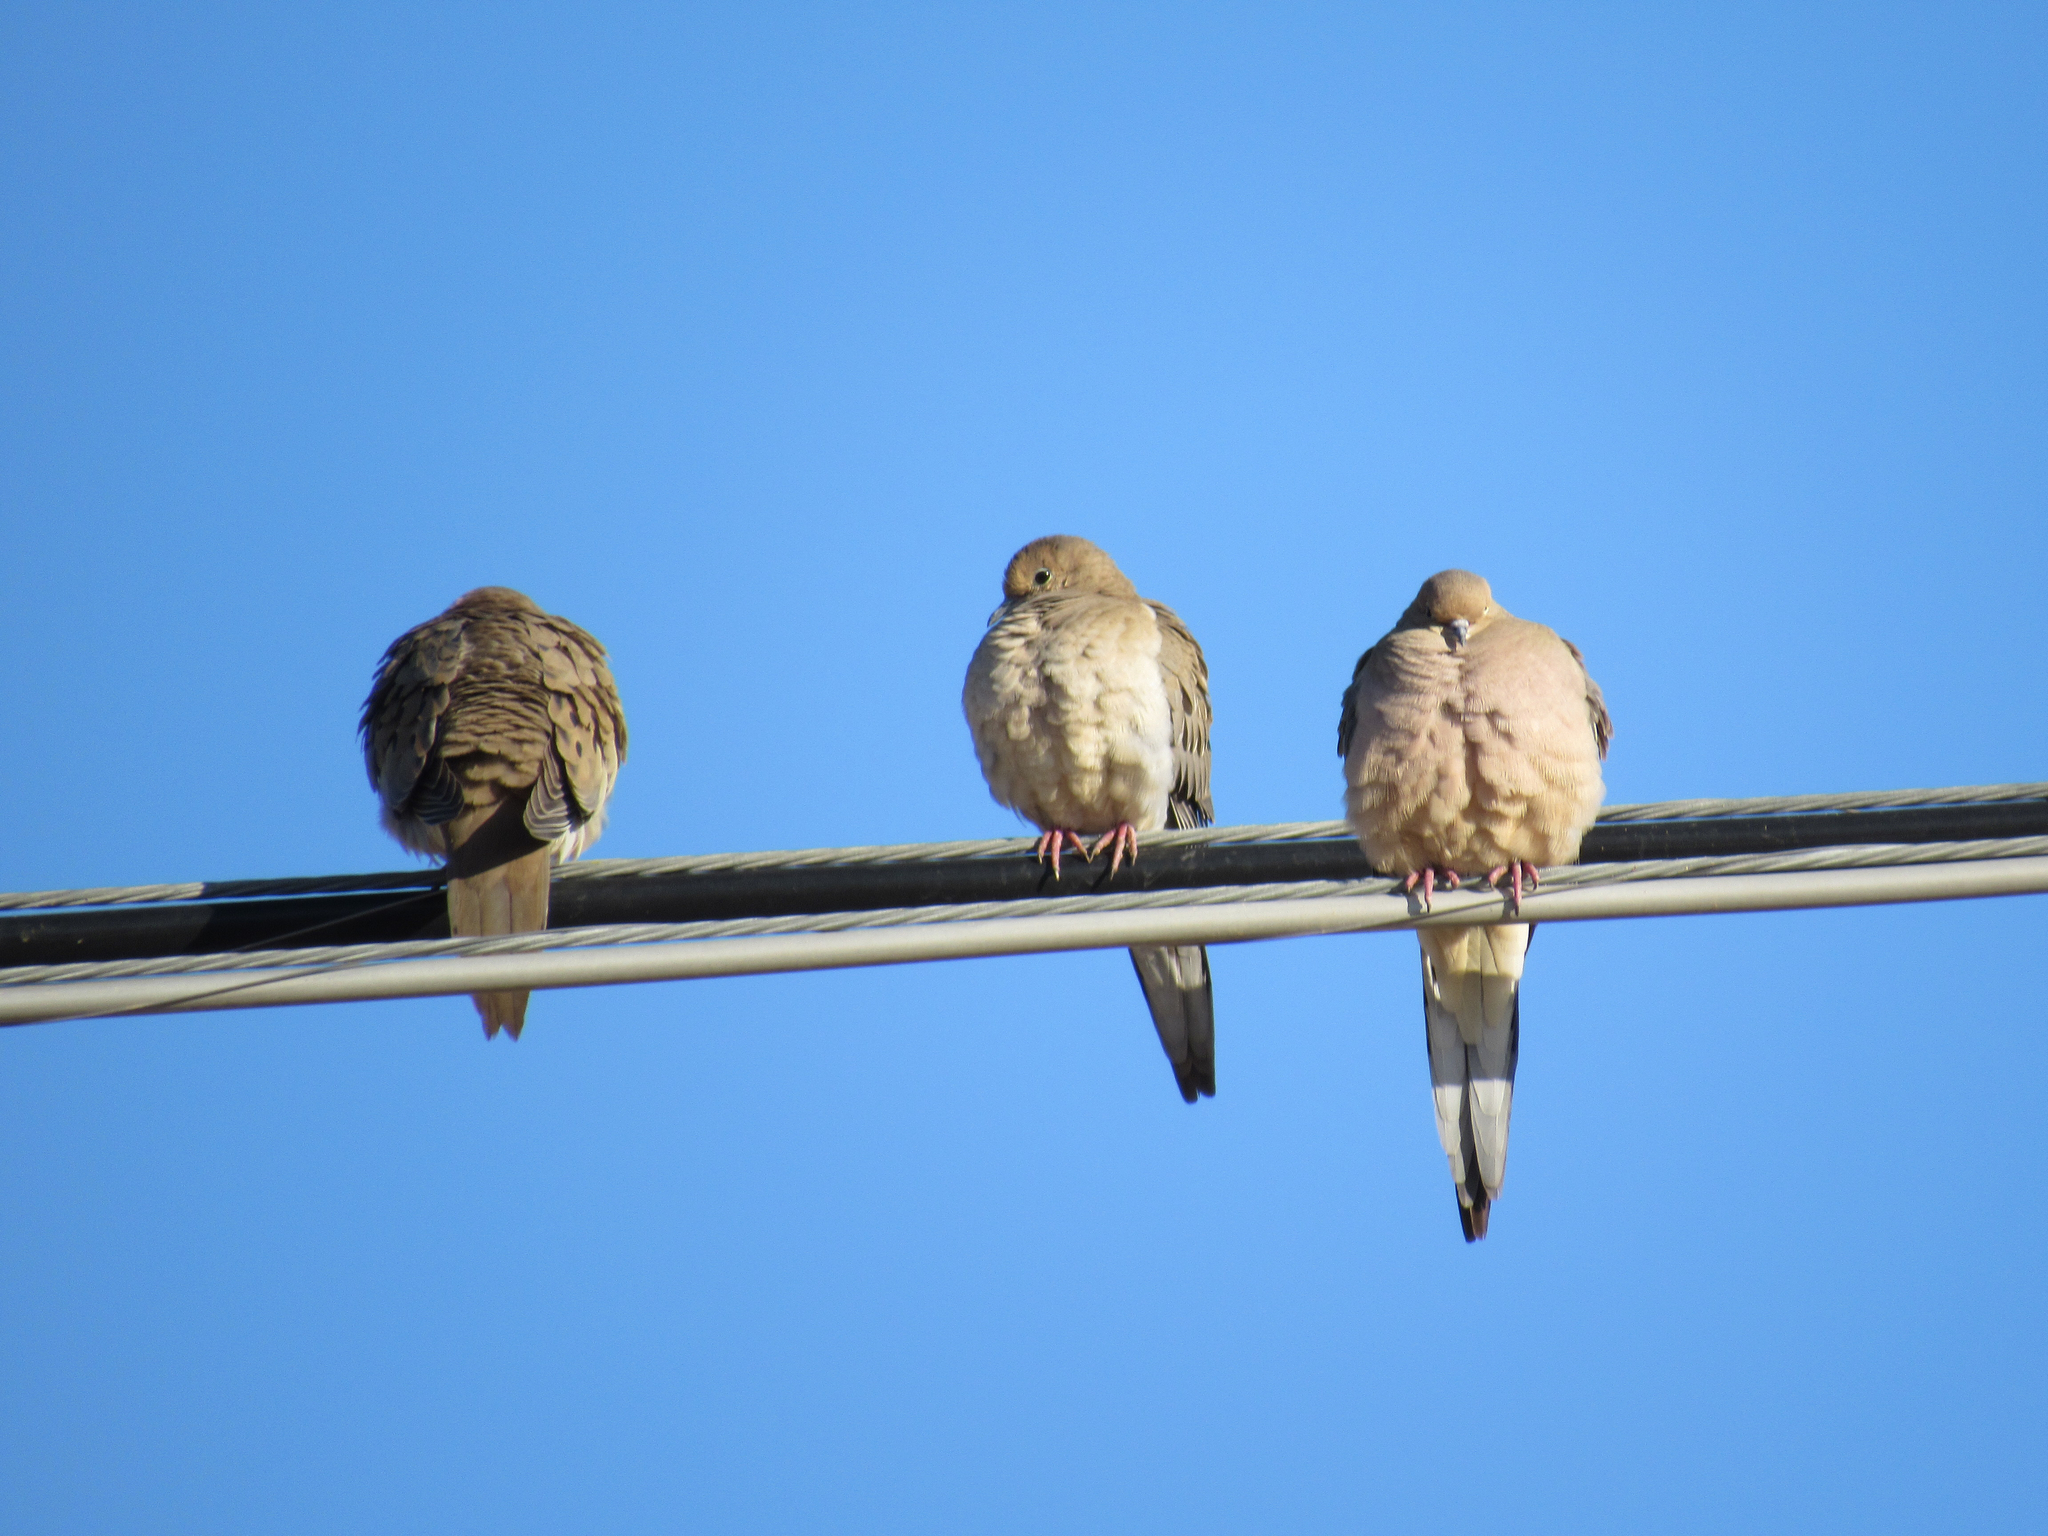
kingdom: Animalia
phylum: Chordata
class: Aves
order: Columbiformes
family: Columbidae
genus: Zenaida
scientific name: Zenaida macroura
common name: Mourning dove
